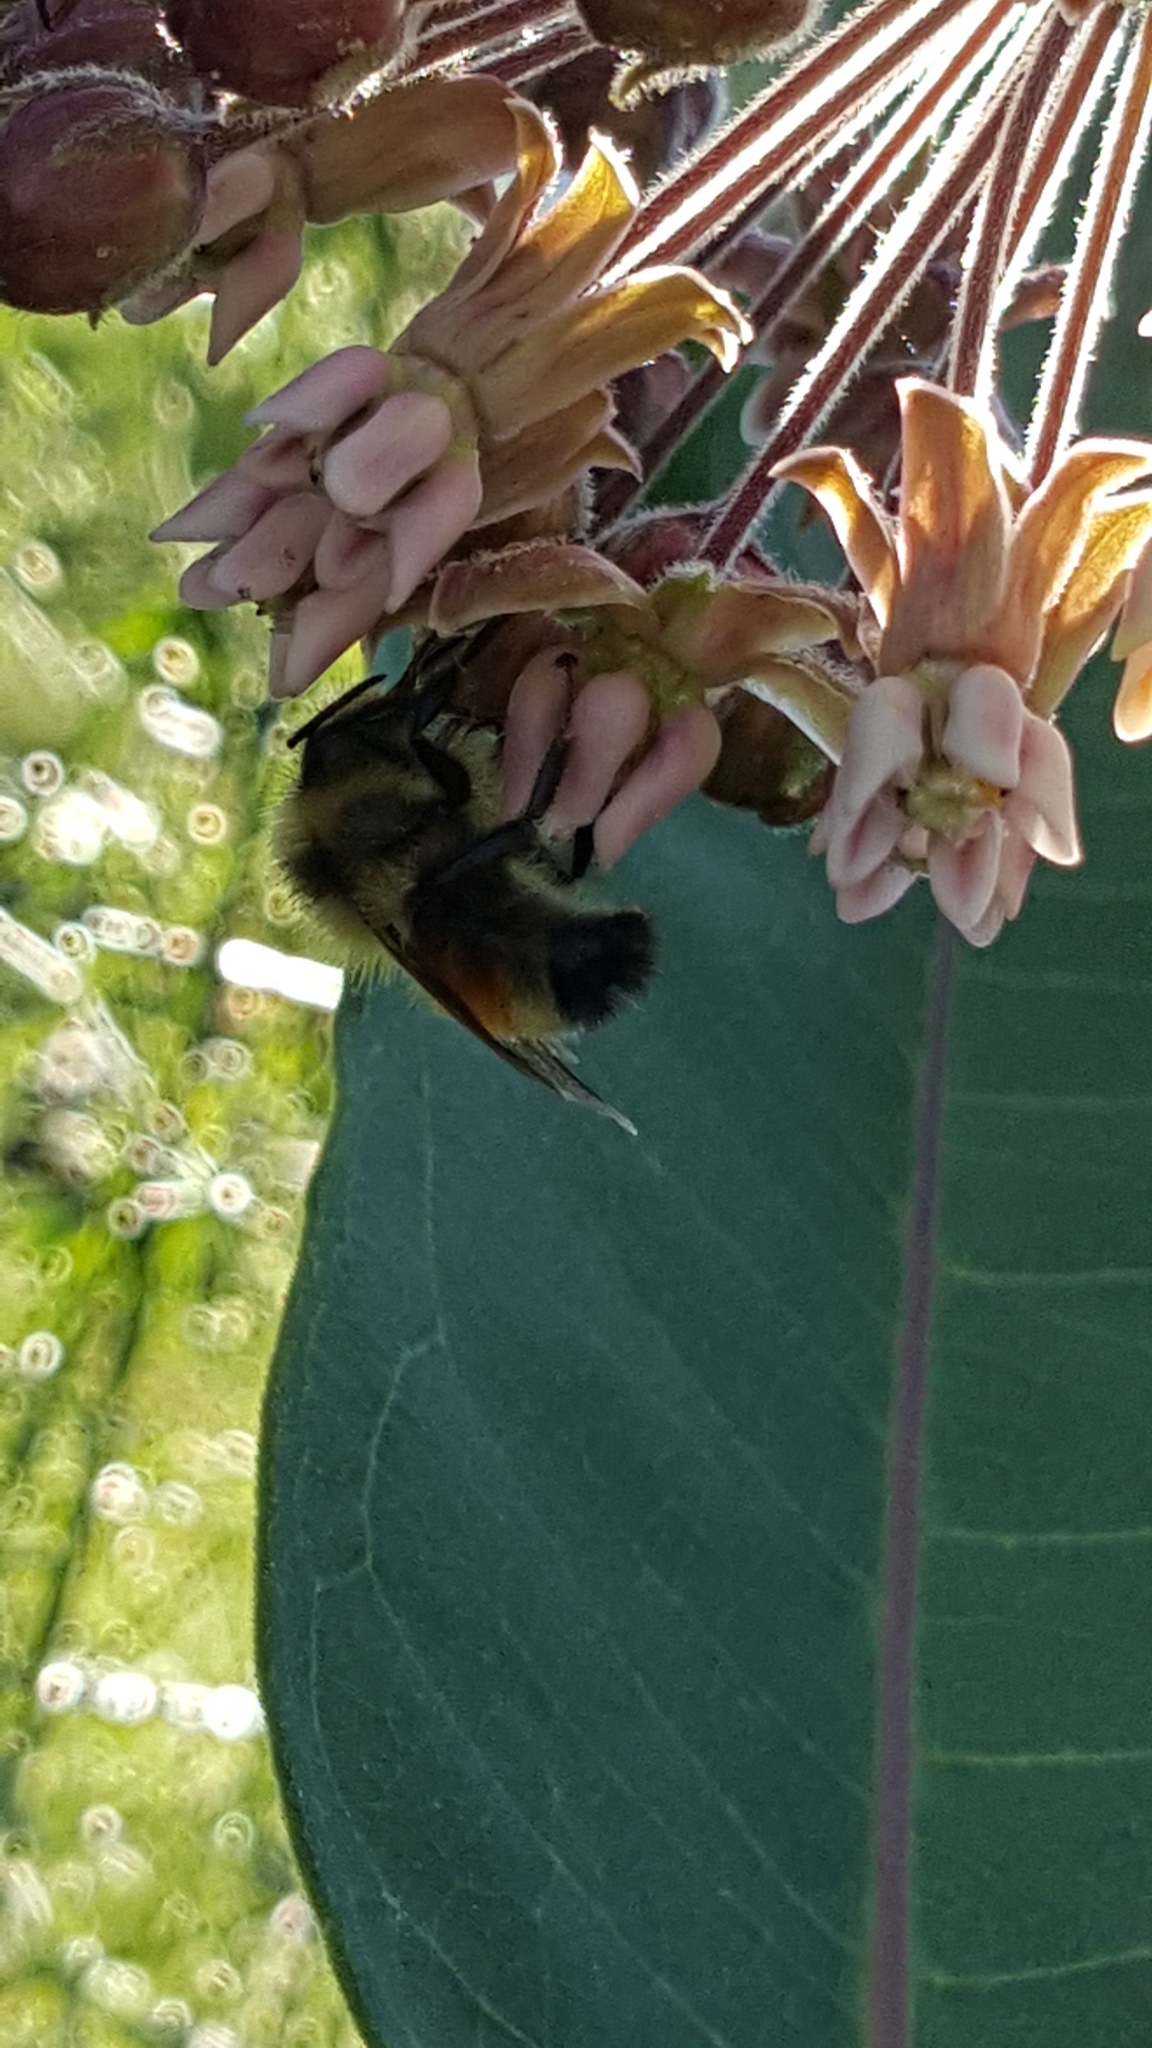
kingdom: Animalia
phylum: Arthropoda
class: Insecta
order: Hymenoptera
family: Apidae
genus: Bombus
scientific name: Bombus ternarius
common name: Tri-colored bumble bee
